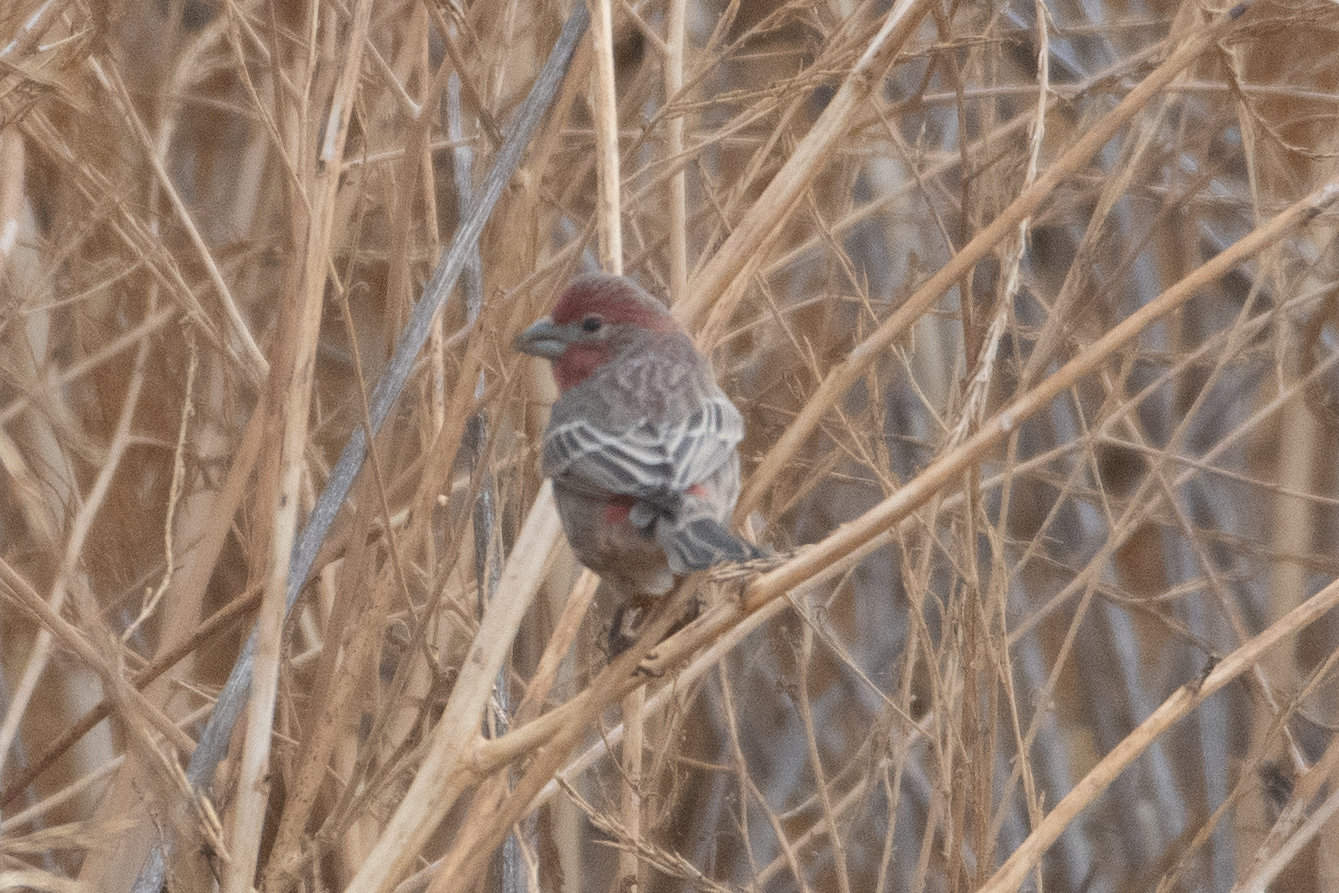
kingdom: Animalia
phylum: Chordata
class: Aves
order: Passeriformes
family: Fringillidae
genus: Haemorhous
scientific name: Haemorhous mexicanus
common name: House finch
